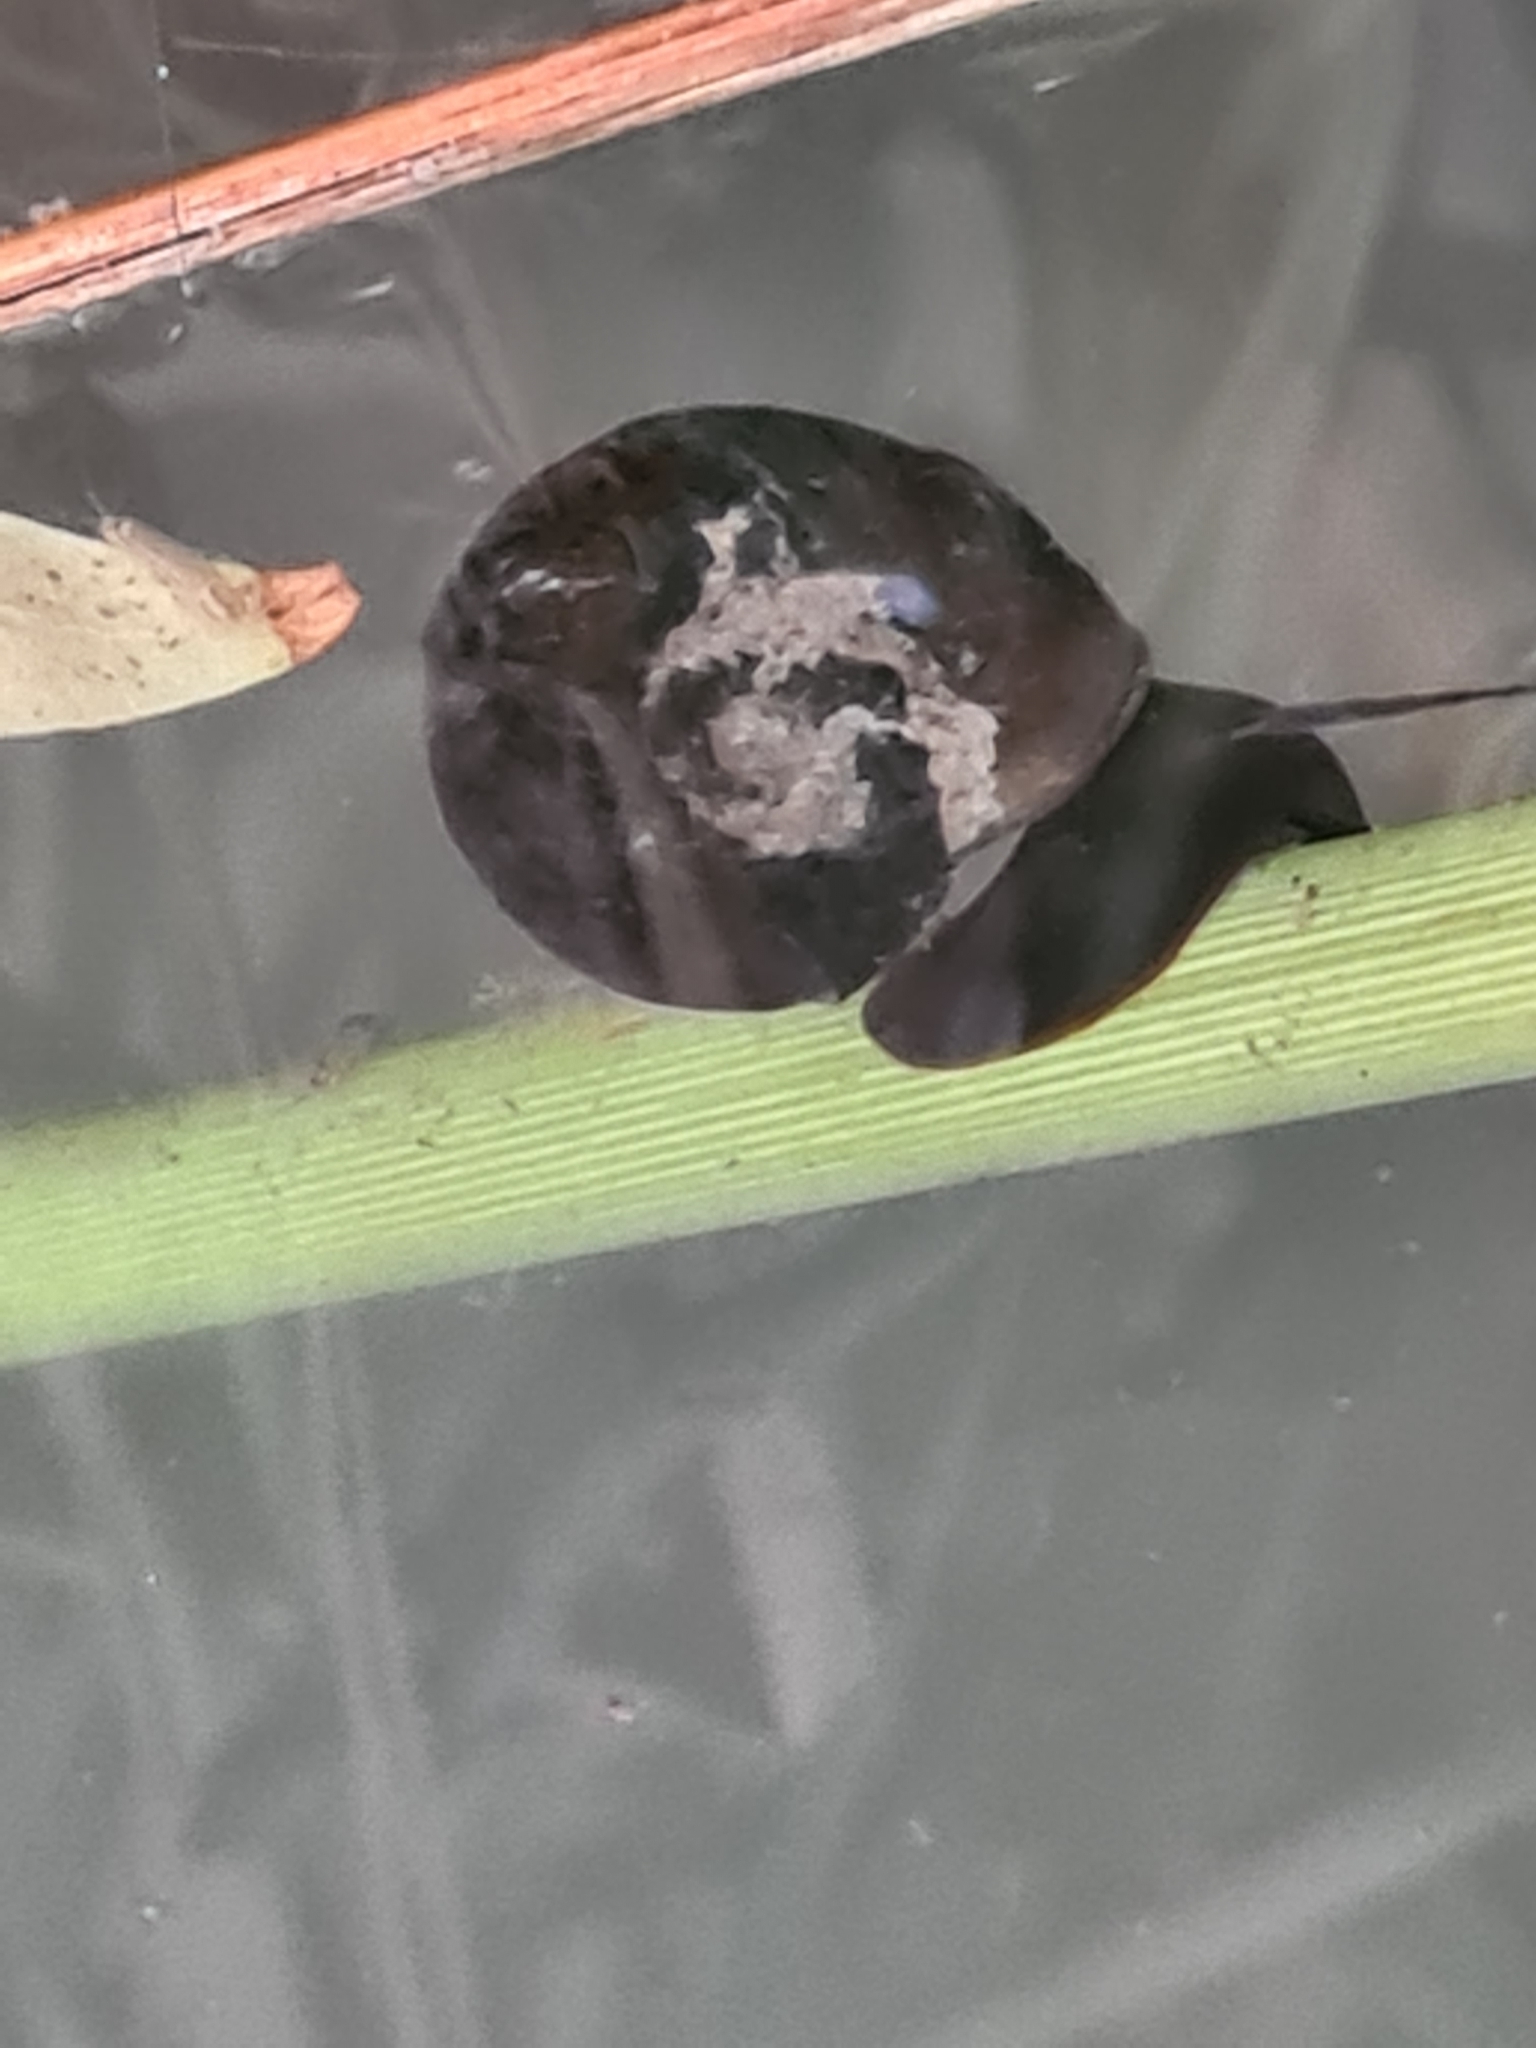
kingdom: Animalia
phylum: Mollusca
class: Gastropoda
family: Planorbidae
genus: Planorbarius
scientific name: Planorbarius corneus
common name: Great ramshorn
